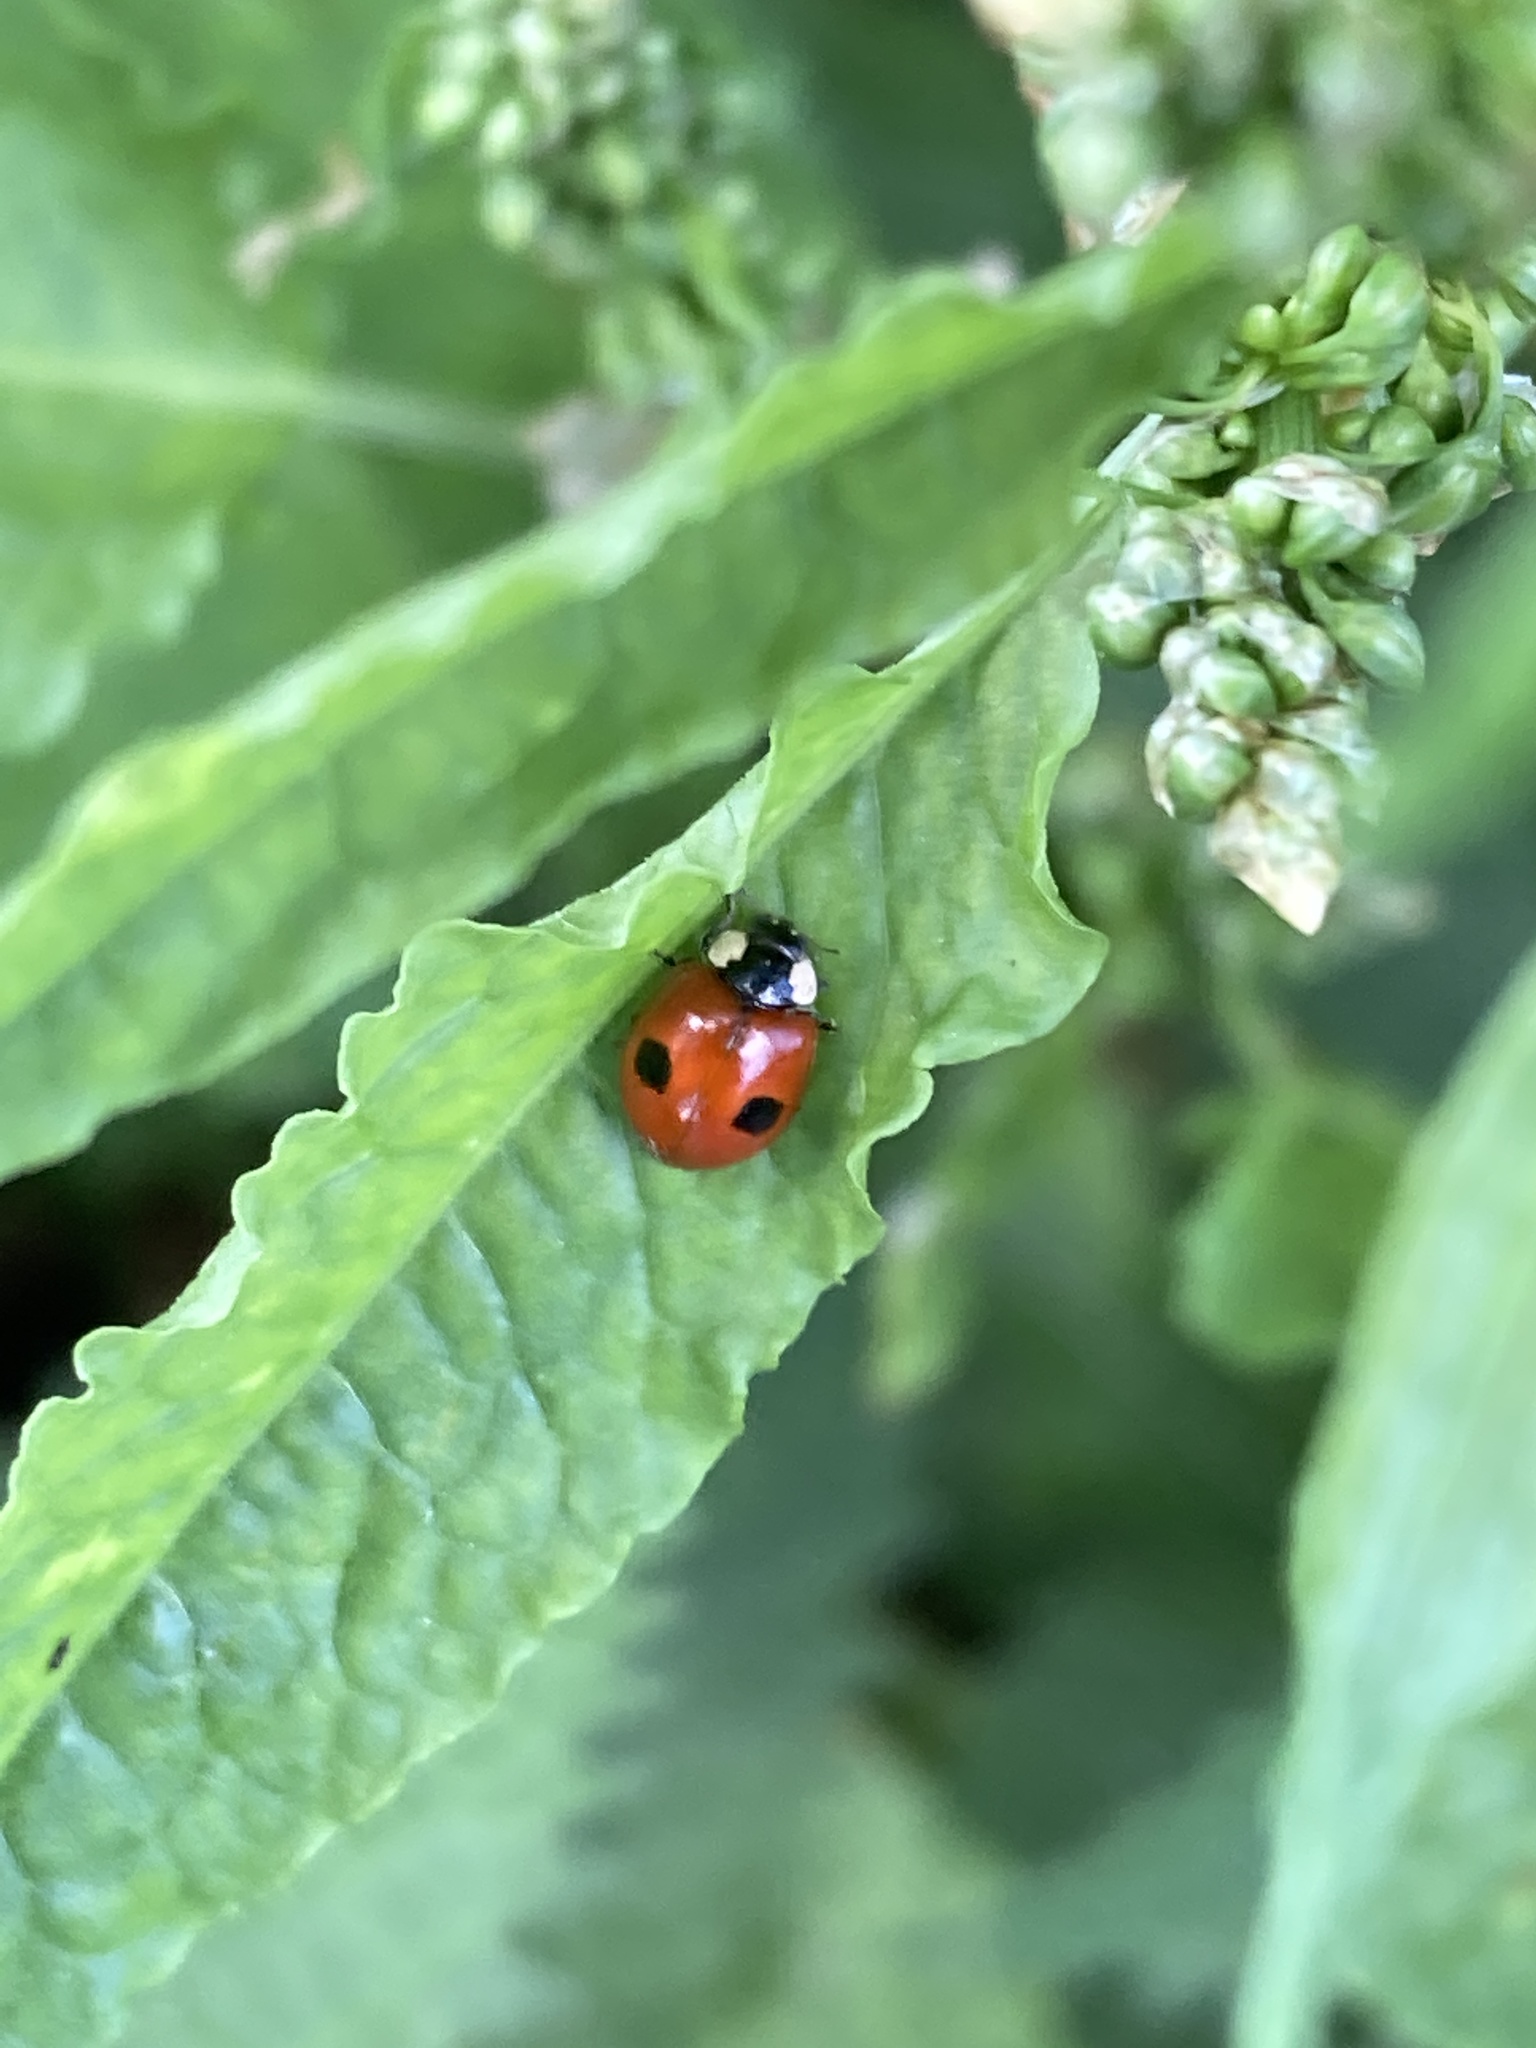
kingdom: Animalia
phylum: Arthropoda
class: Insecta
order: Coleoptera
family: Coccinellidae
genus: Adalia
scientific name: Adalia bipunctata
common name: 2-spot ladybird
